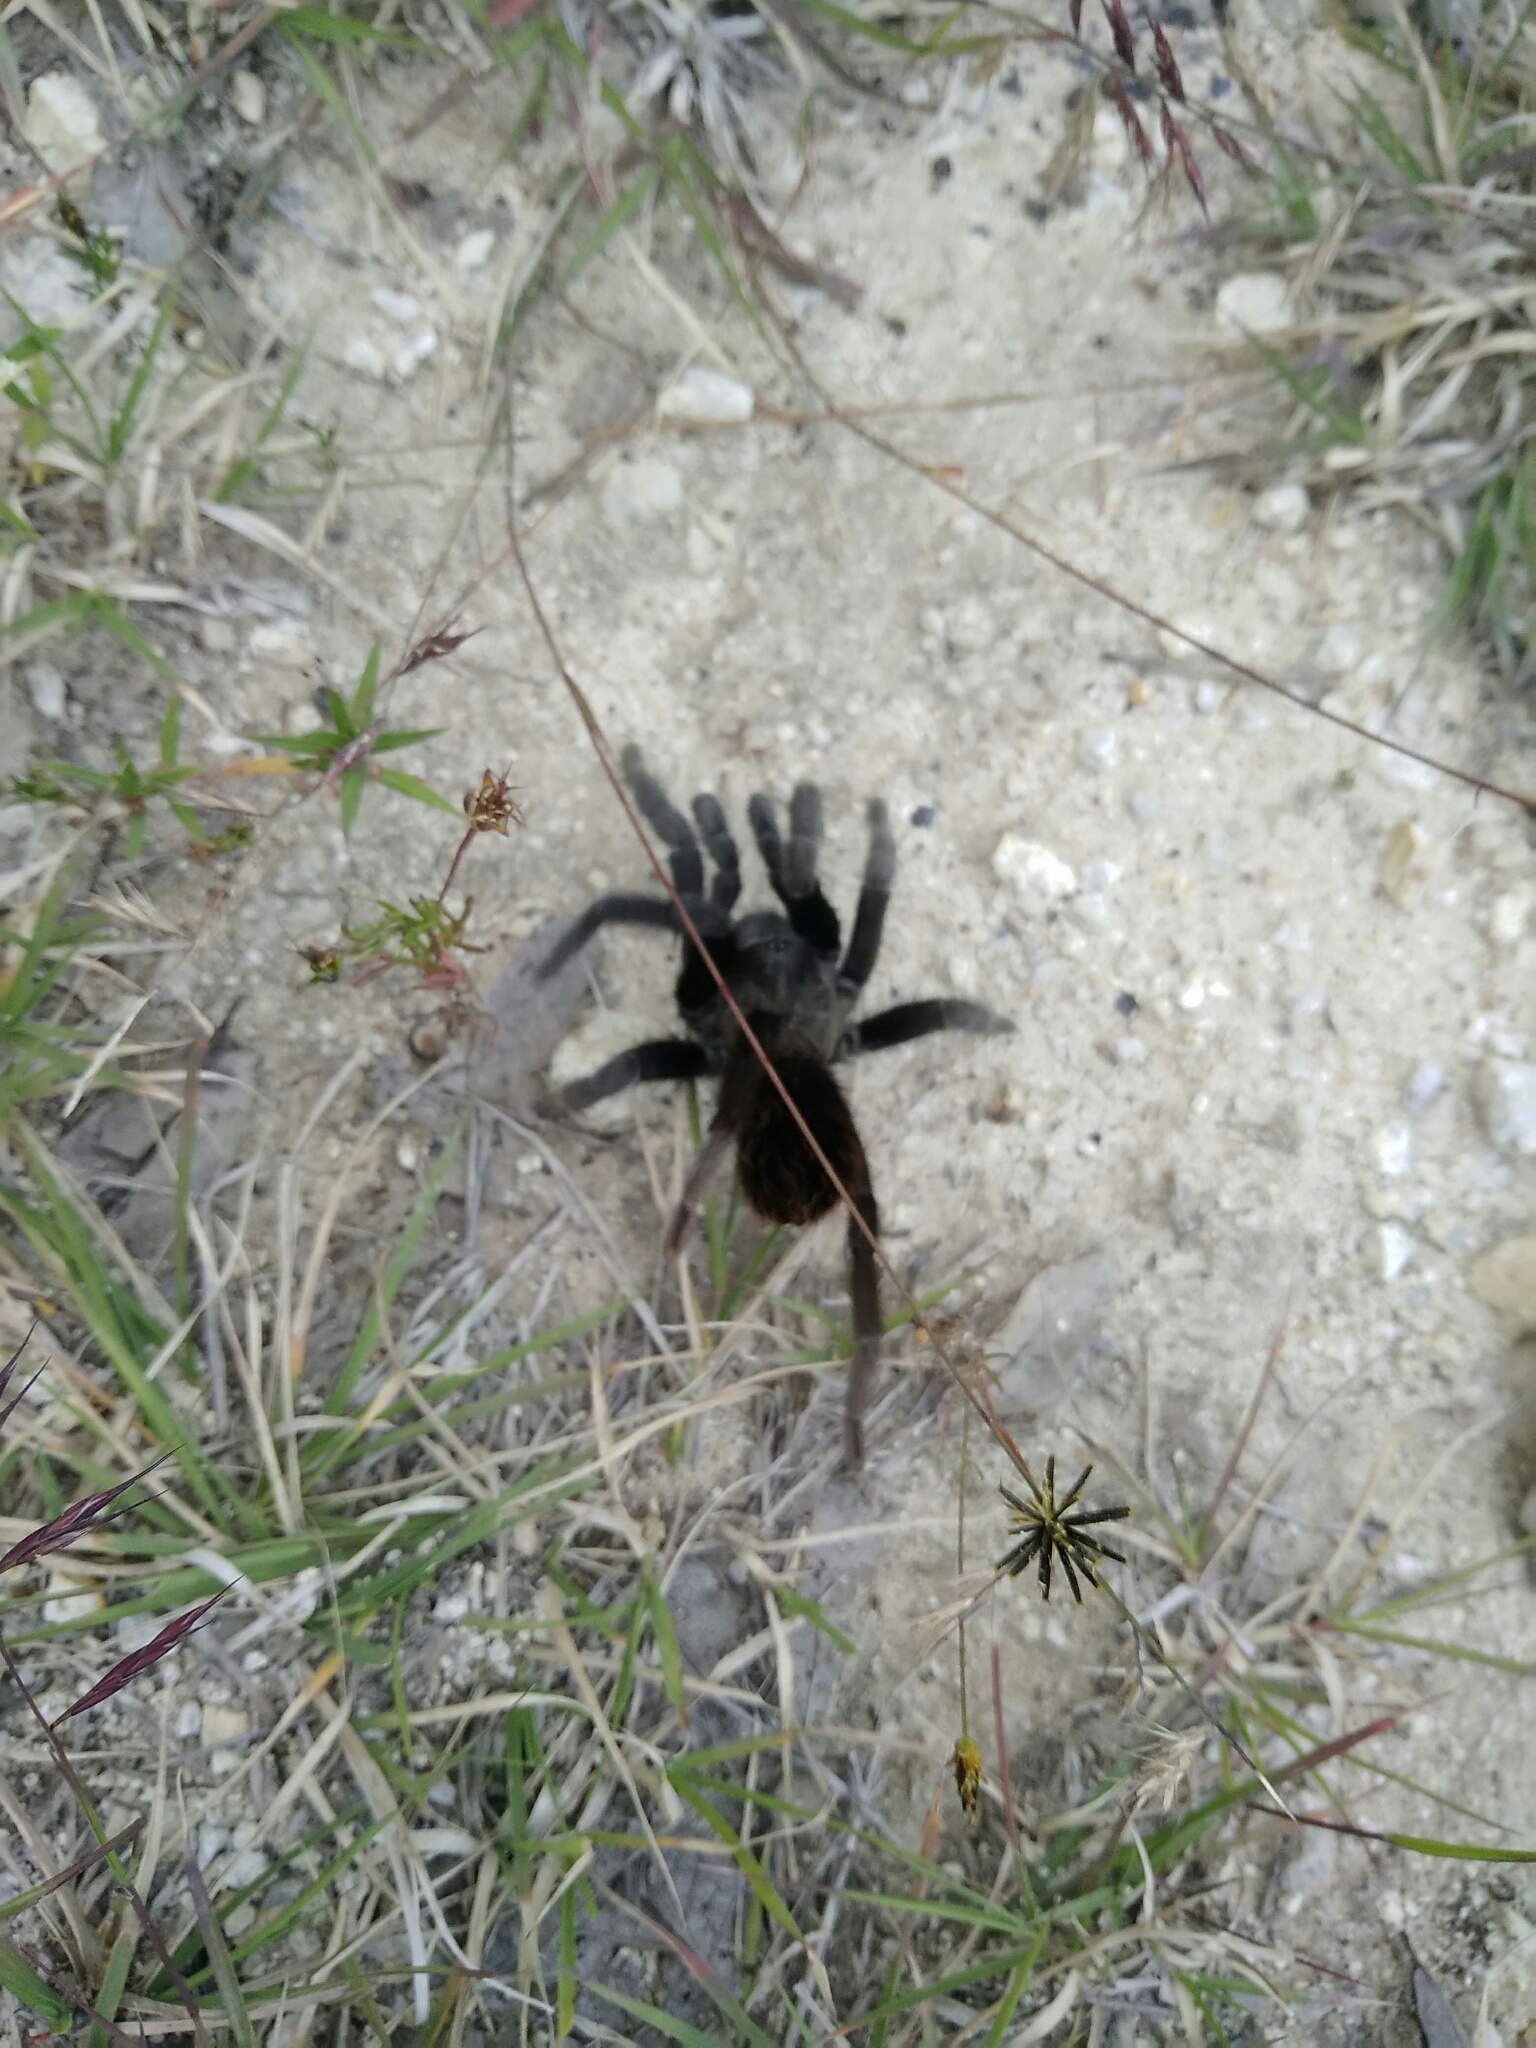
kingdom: Animalia
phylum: Arthropoda
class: Arachnida
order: Araneae
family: Theraphosidae
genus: Tliltocatl
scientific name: Tliltocatl schroederi
